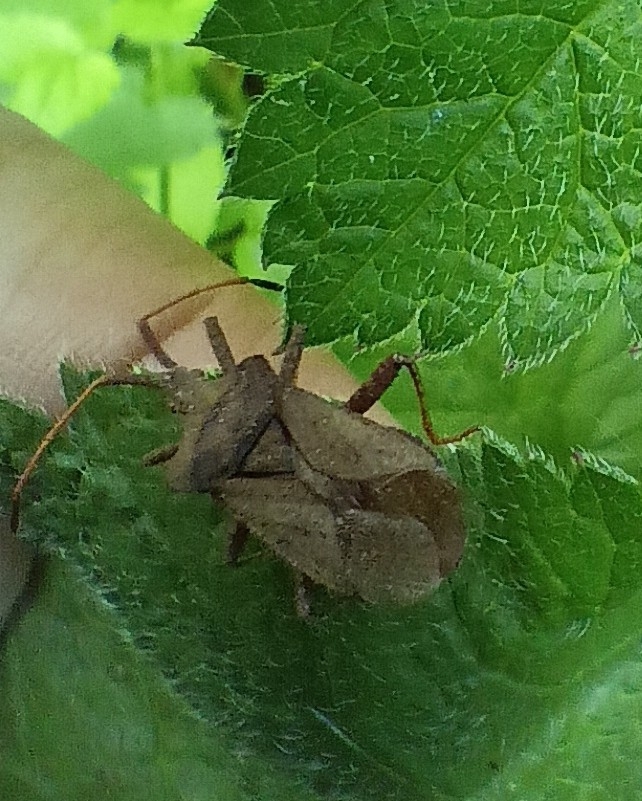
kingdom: Animalia
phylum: Arthropoda
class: Insecta
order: Hemiptera
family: Coreidae
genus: Coreus
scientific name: Coreus marginatus
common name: Dock bug
